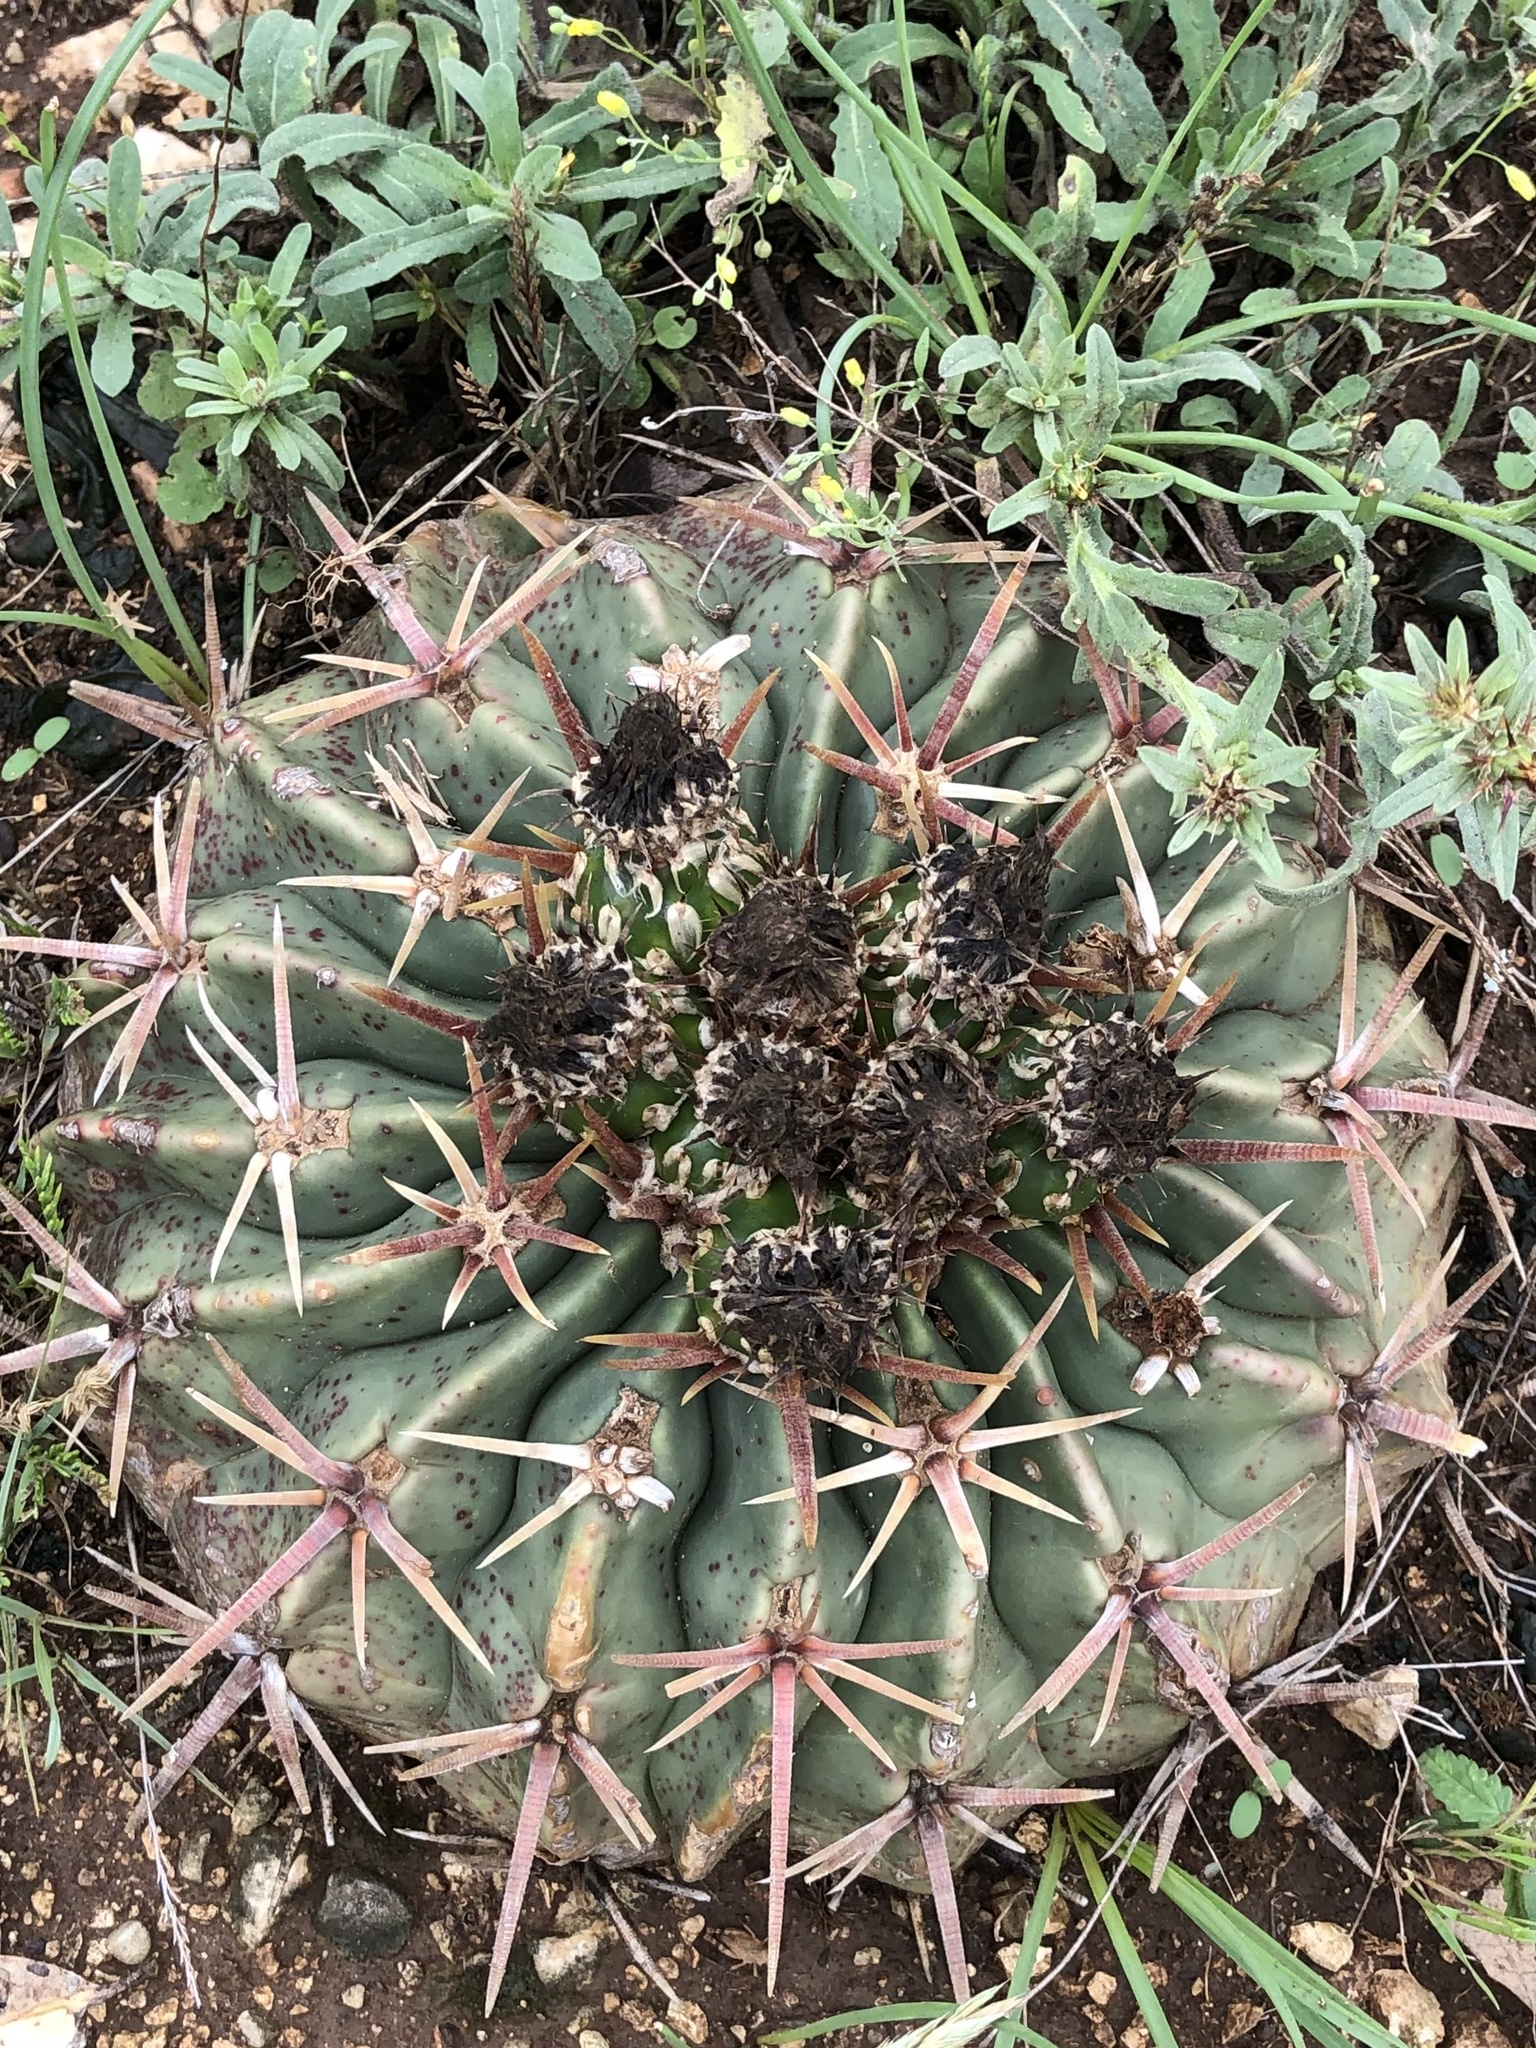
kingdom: Plantae
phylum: Tracheophyta
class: Magnoliopsida
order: Caryophyllales
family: Cactaceae
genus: Echinocactus
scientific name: Echinocactus texensis
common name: Devil's pincushion
